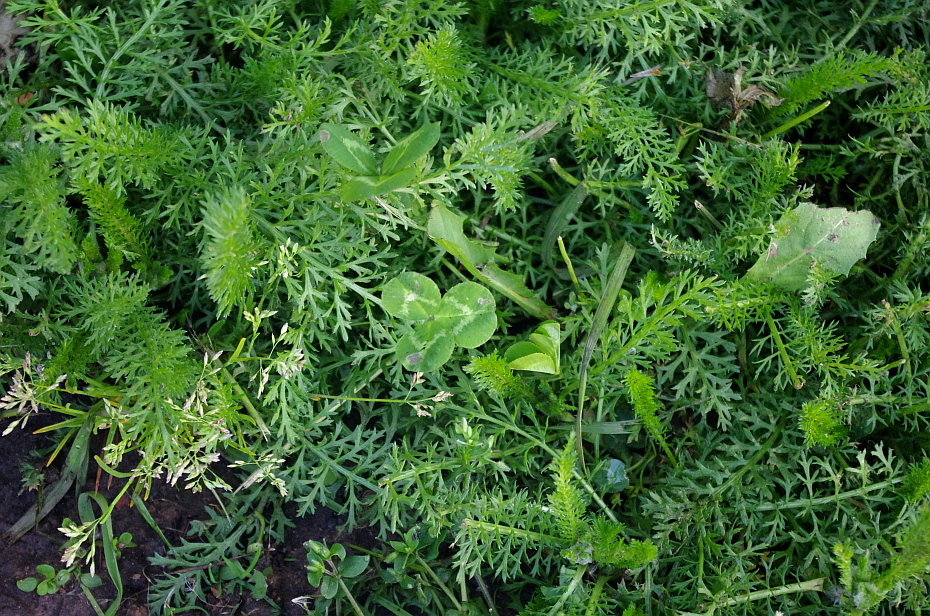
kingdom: Plantae
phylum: Tracheophyta
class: Magnoliopsida
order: Asterales
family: Asteraceae
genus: Achillea
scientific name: Achillea millefolium
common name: Yarrow
